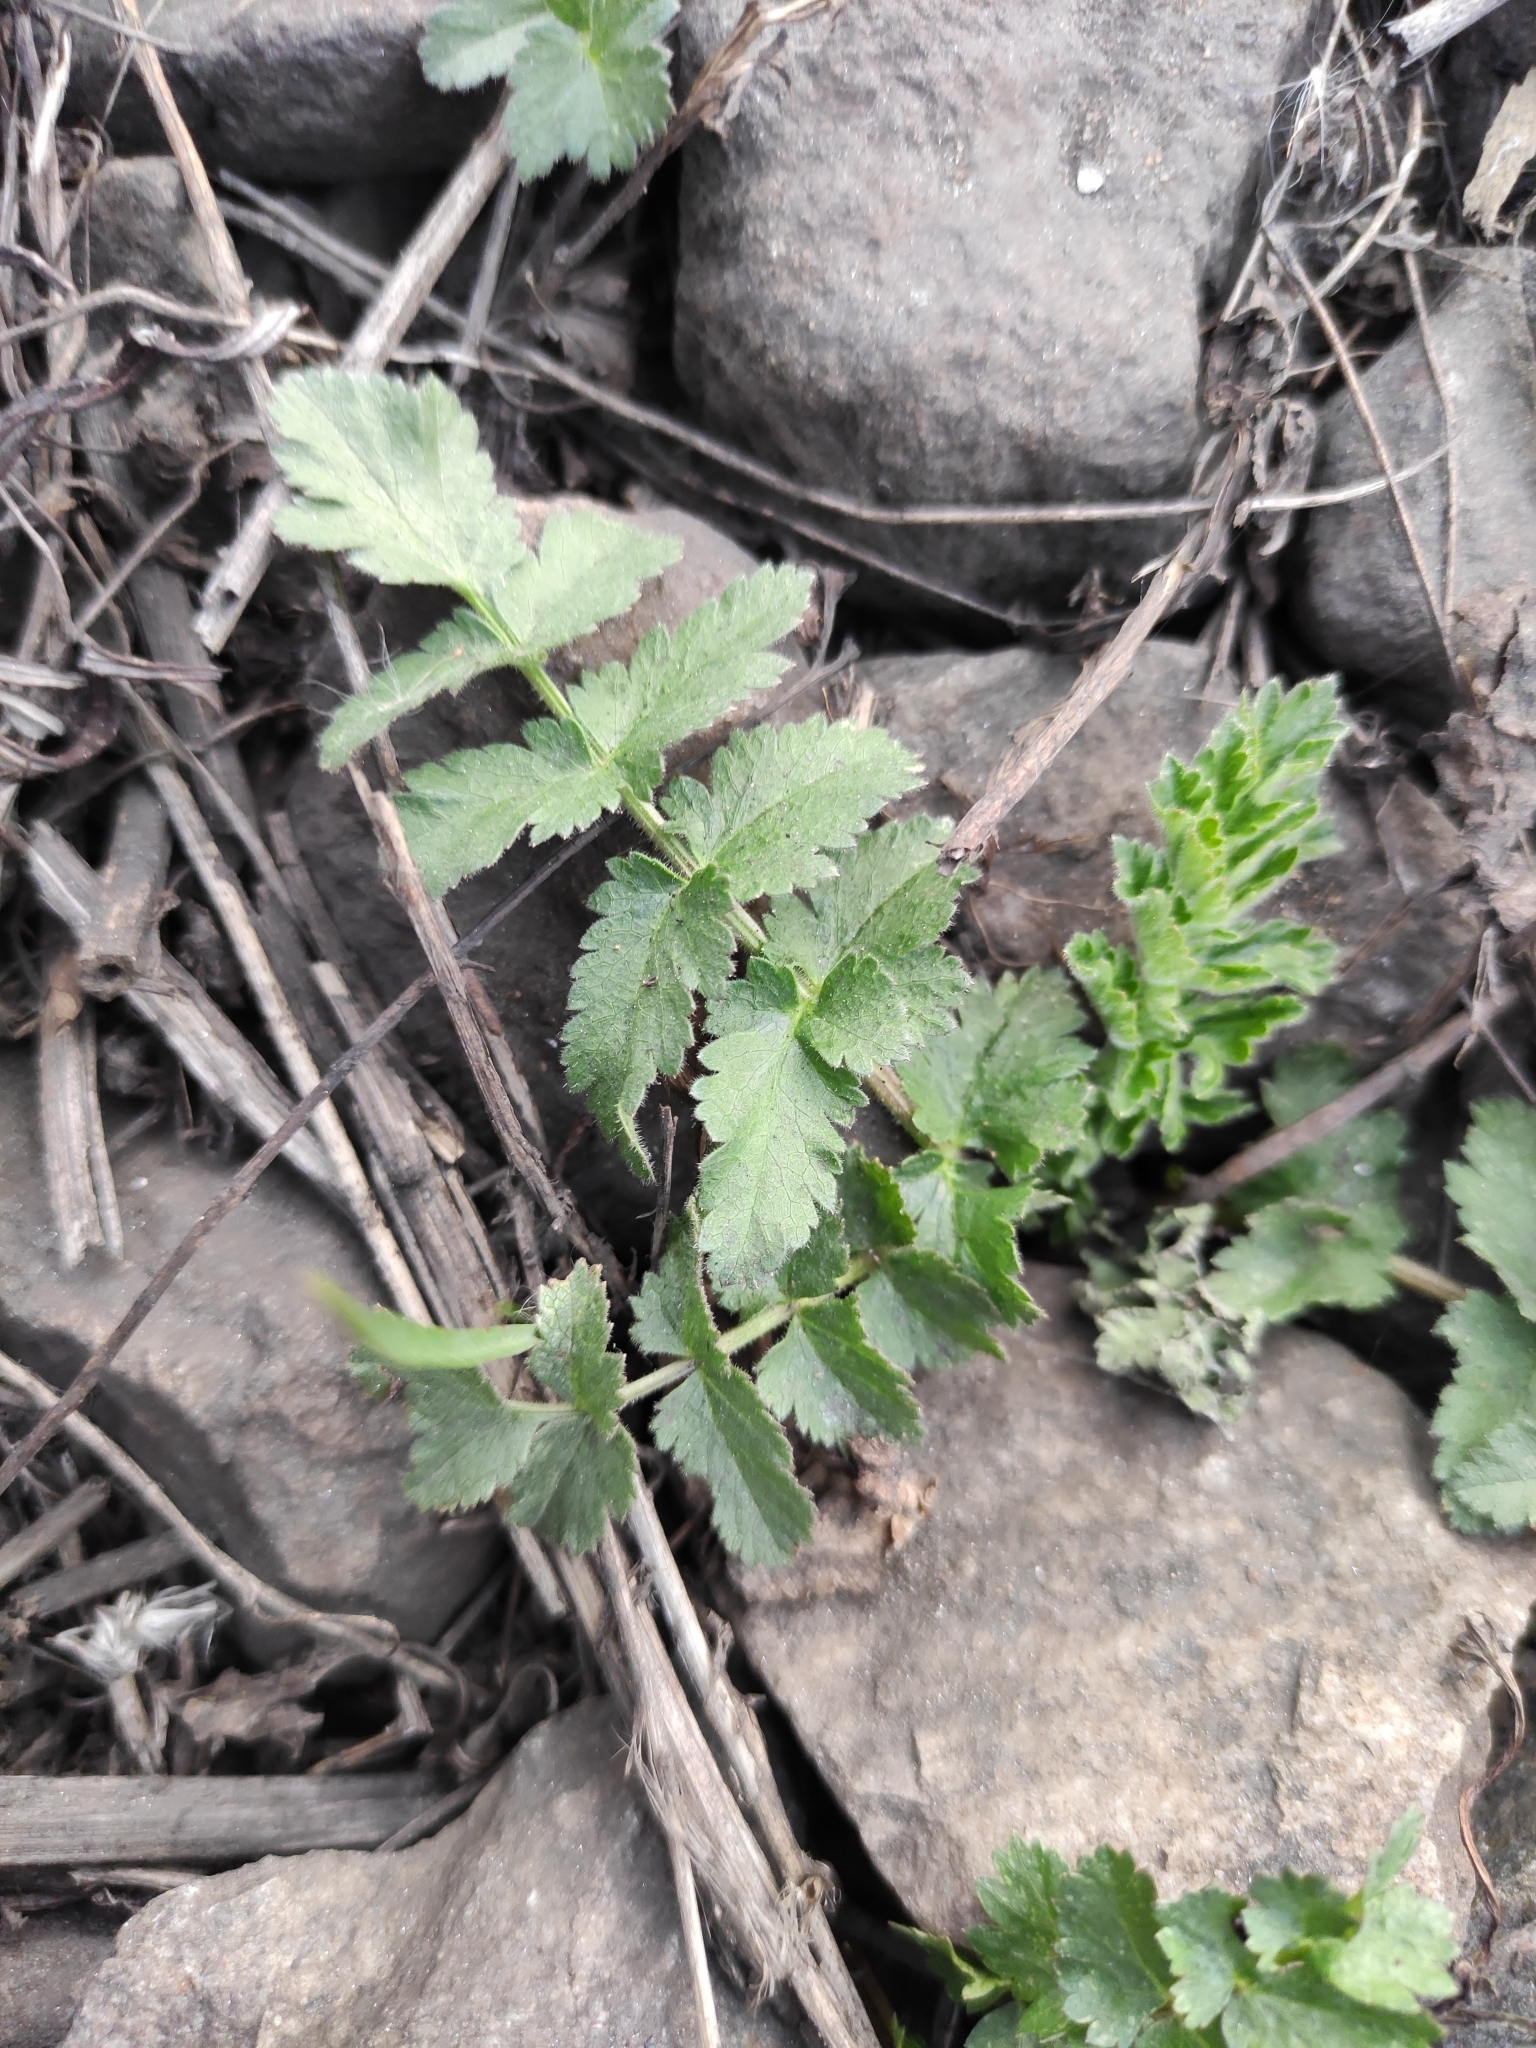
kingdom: Plantae
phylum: Tracheophyta
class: Magnoliopsida
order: Apiales
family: Apiaceae
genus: Pastinaca
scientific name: Pastinaca sativa
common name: Wild parsnip
